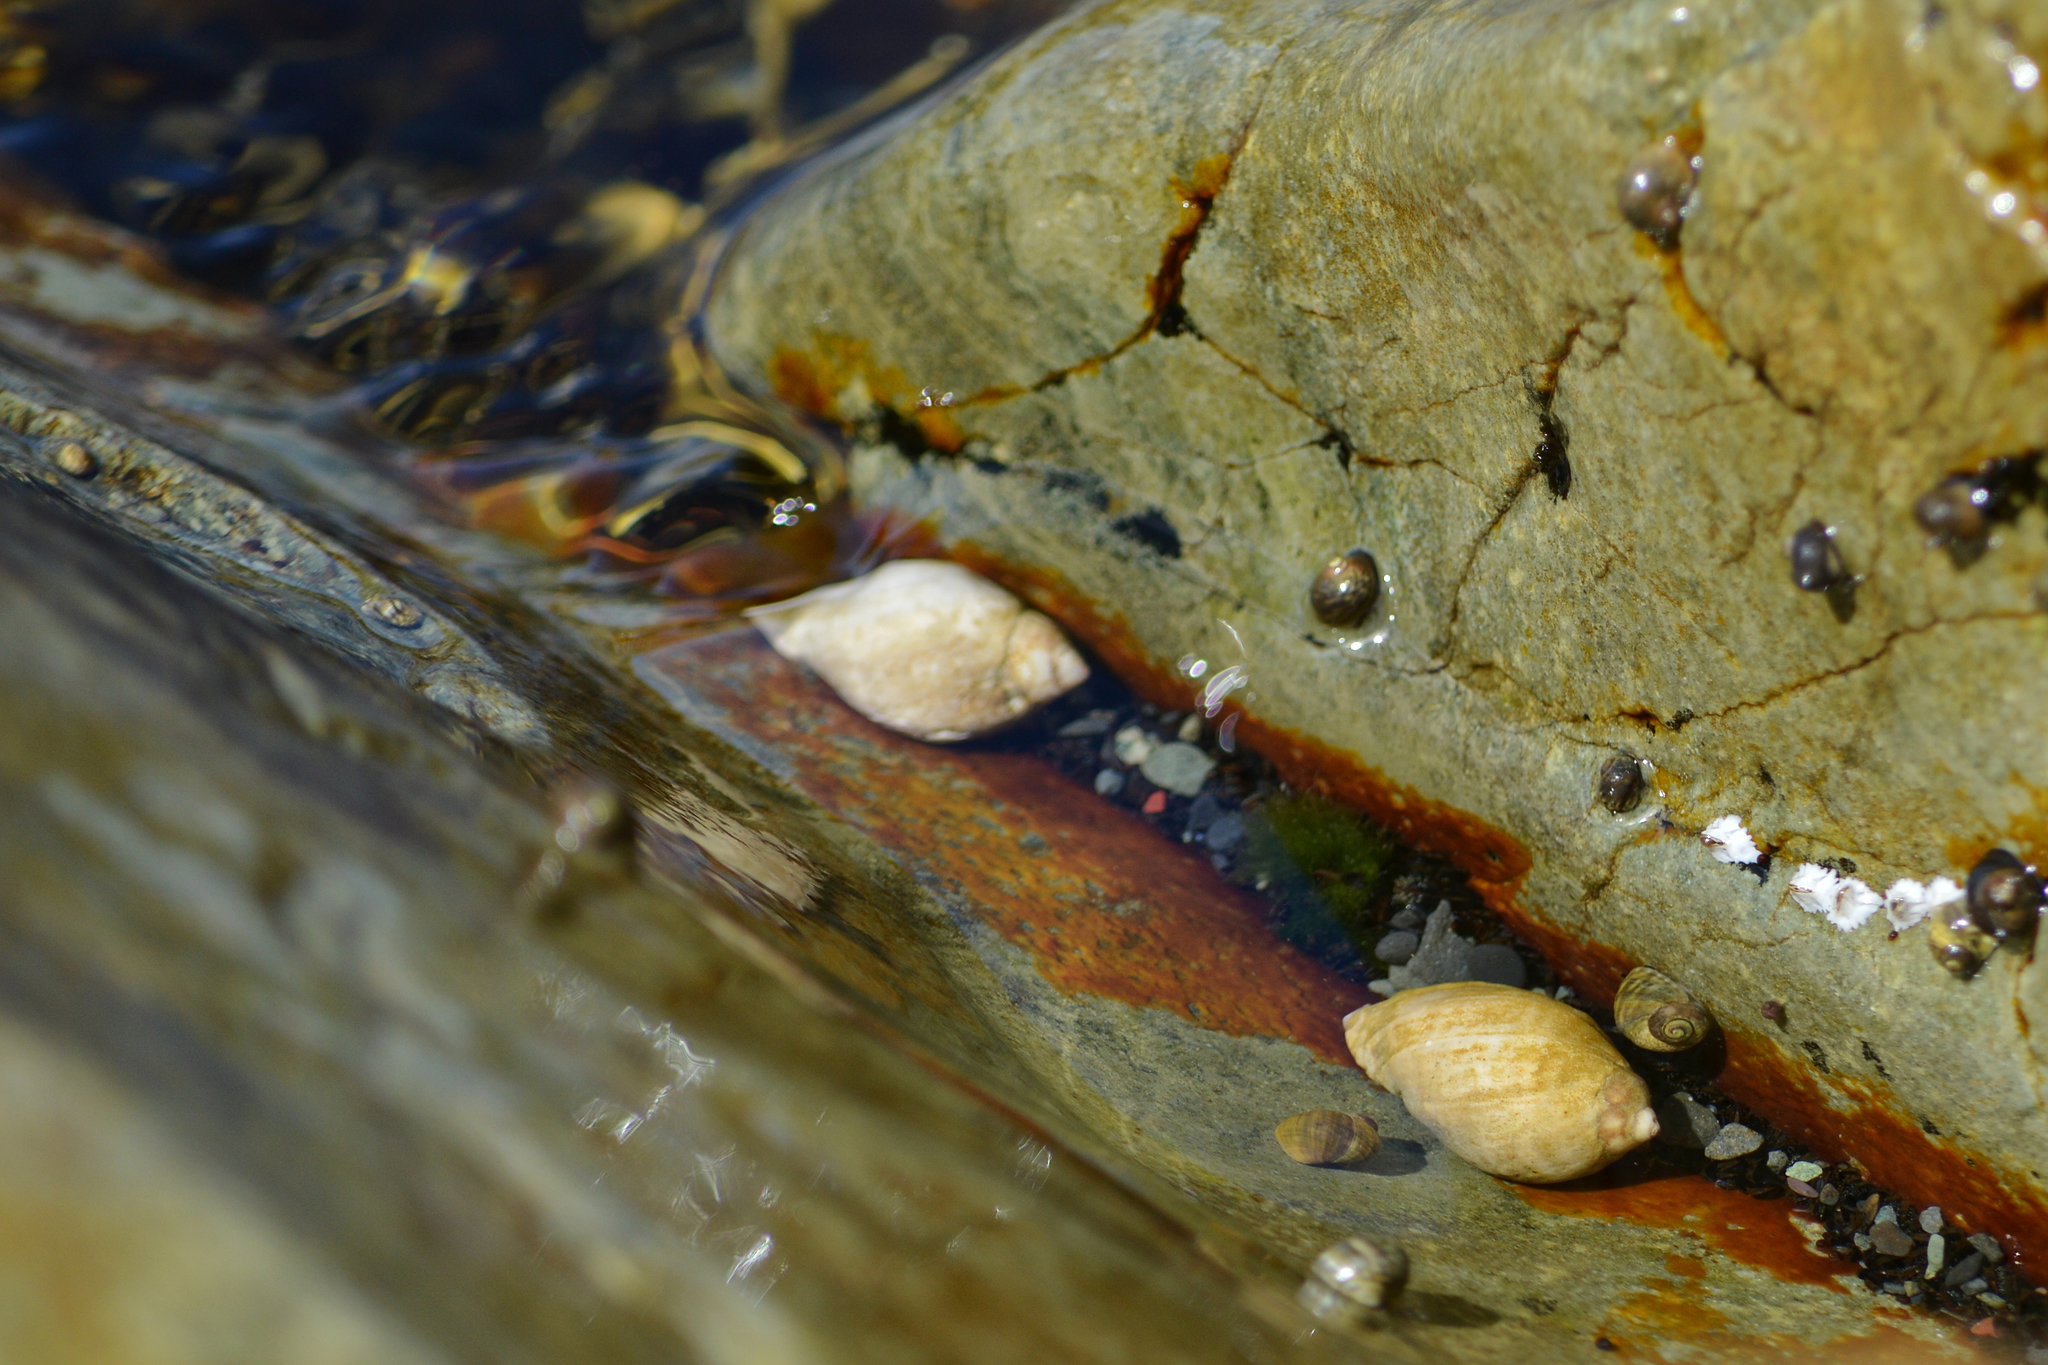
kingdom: Animalia
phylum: Mollusca
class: Gastropoda
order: Neogastropoda
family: Muricidae
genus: Nucella
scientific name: Nucella lapillus
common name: Dog whelk
